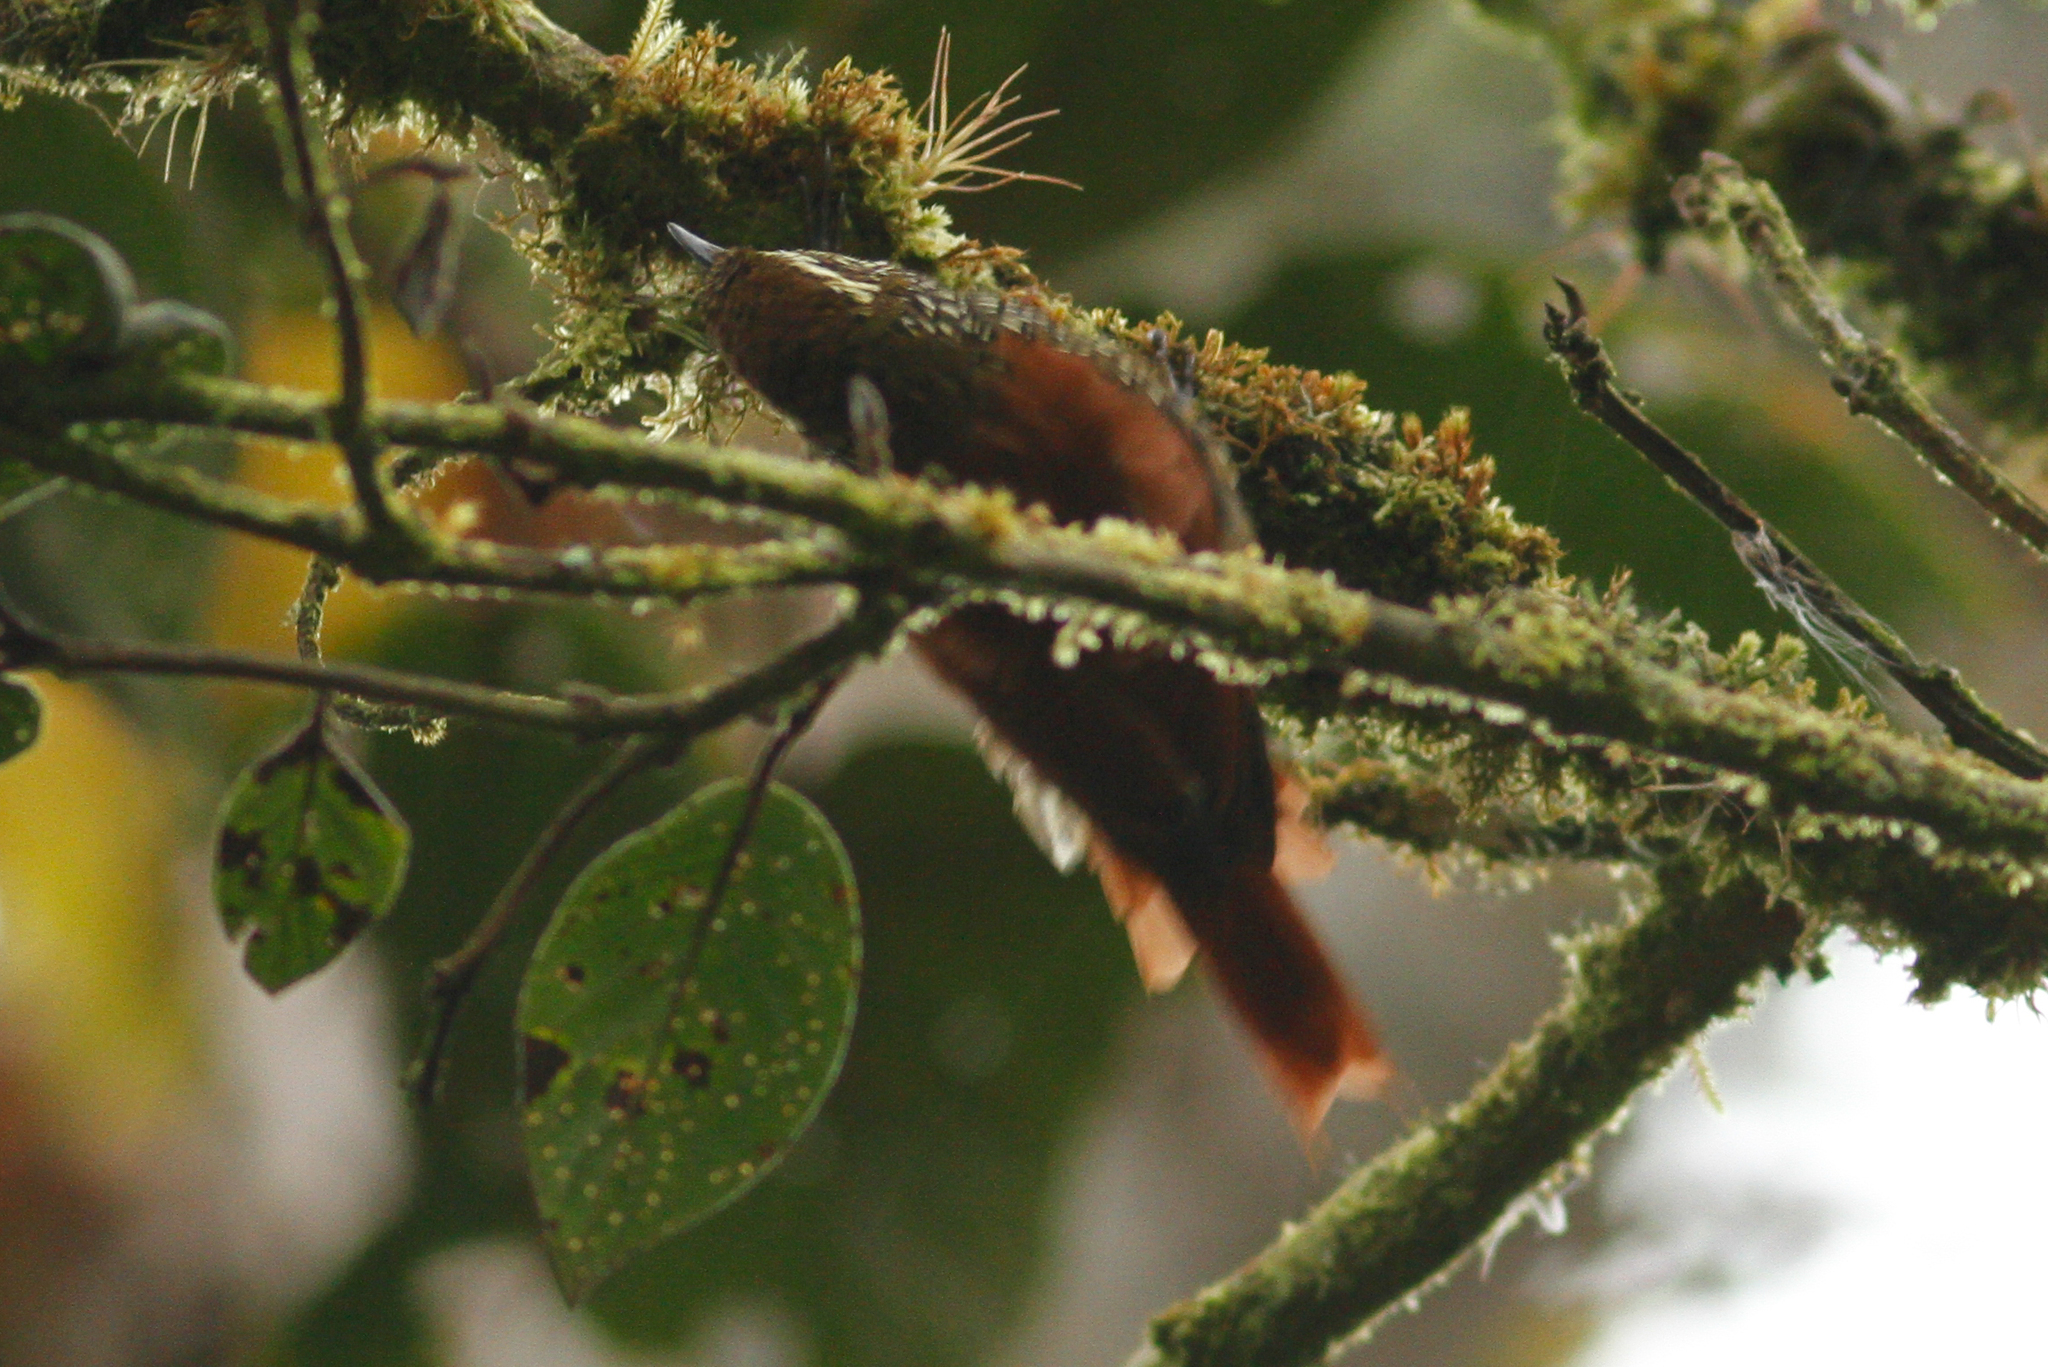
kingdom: Animalia
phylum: Chordata
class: Aves
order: Passeriformes
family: Furnariidae
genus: Margarornis
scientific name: Margarornis squamiger
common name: Pearled treerunner
